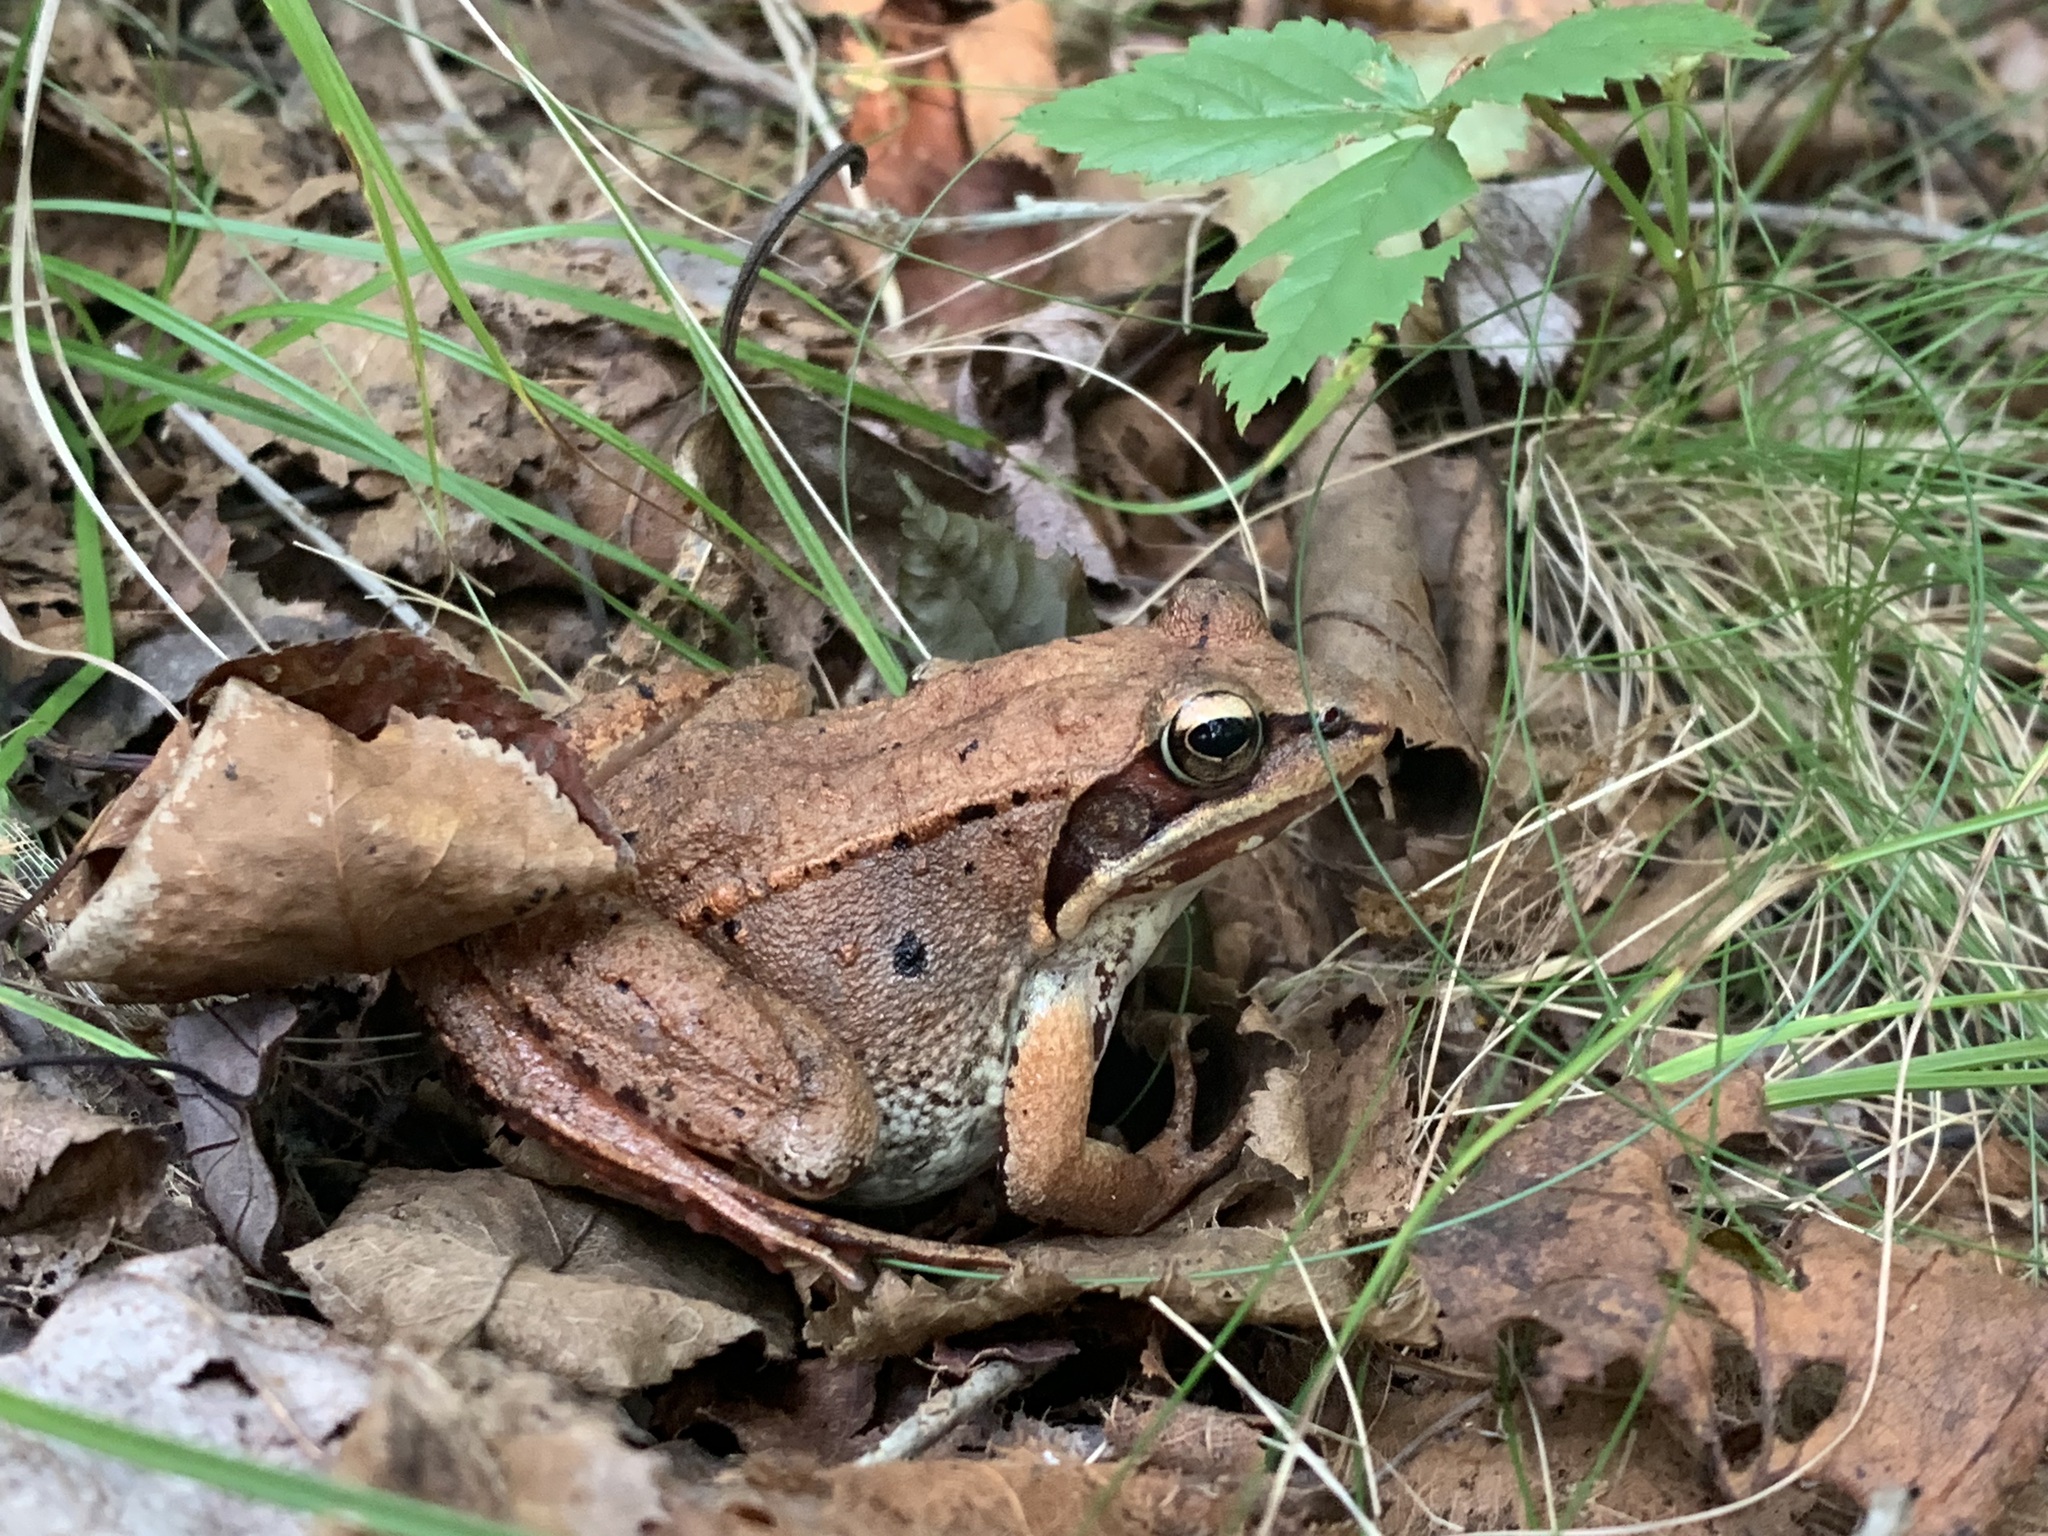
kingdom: Animalia
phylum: Chordata
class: Amphibia
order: Anura
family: Ranidae
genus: Lithobates
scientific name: Lithobates sylvaticus
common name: Wood frog
